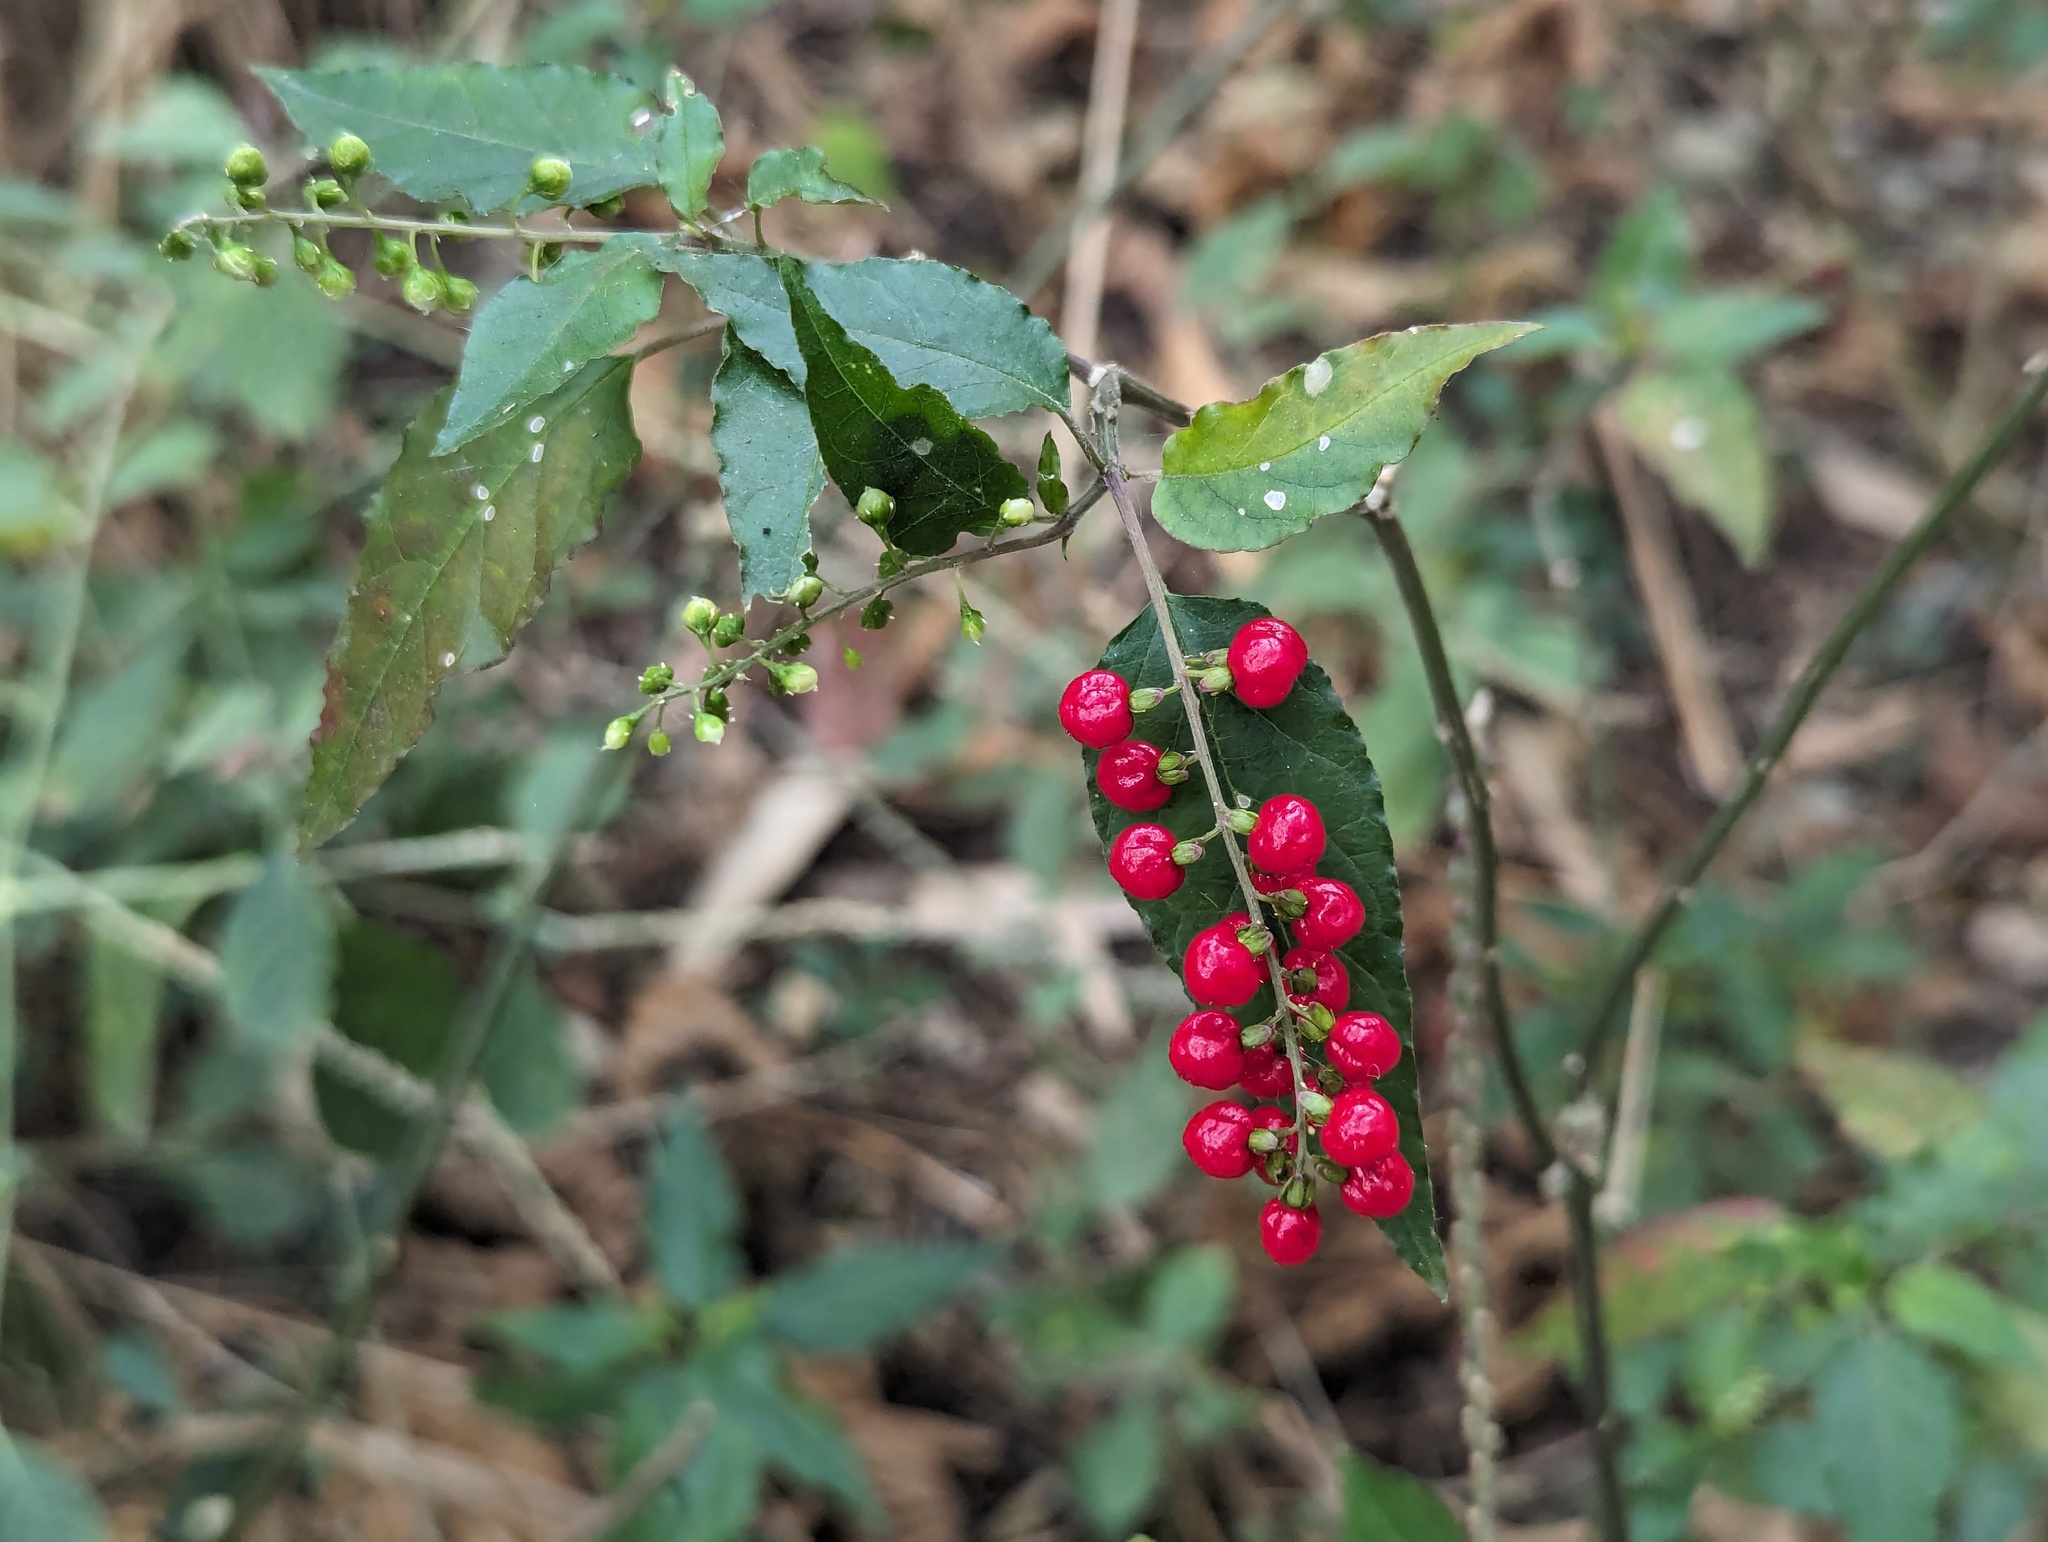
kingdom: Plantae
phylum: Tracheophyta
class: Magnoliopsida
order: Caryophyllales
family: Phytolaccaceae
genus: Rivina
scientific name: Rivina humilis
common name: Rougeplant
